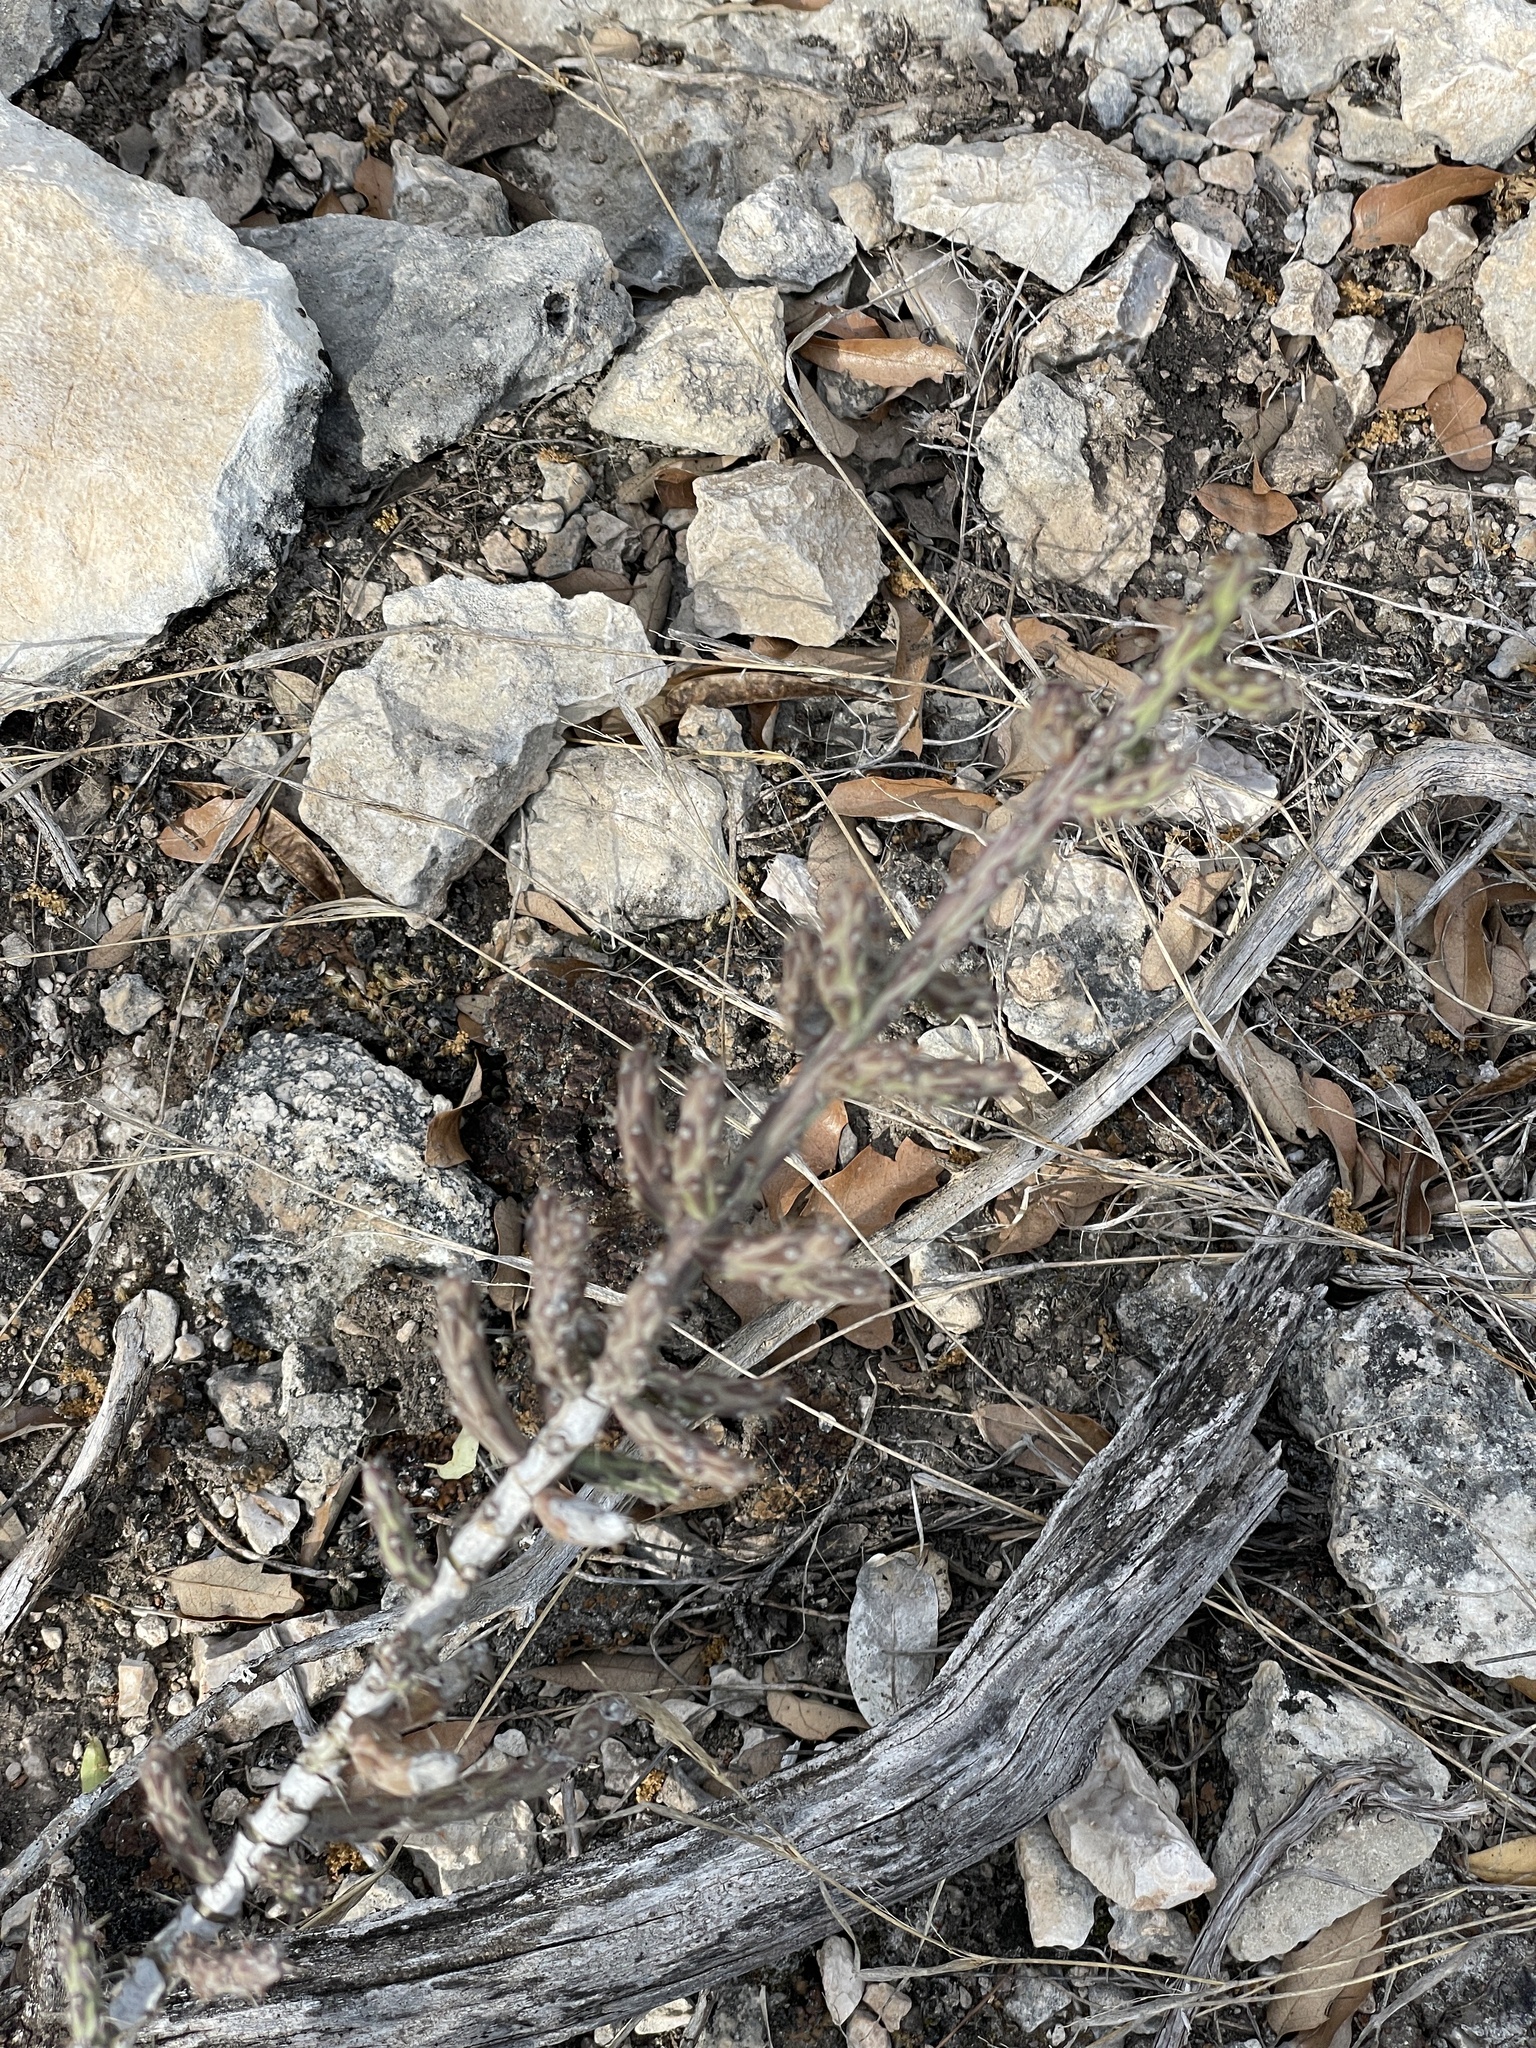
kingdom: Plantae
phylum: Tracheophyta
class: Magnoliopsida
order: Caryophyllales
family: Cactaceae
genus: Cylindropuntia
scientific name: Cylindropuntia leptocaulis
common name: Christmas cactus
